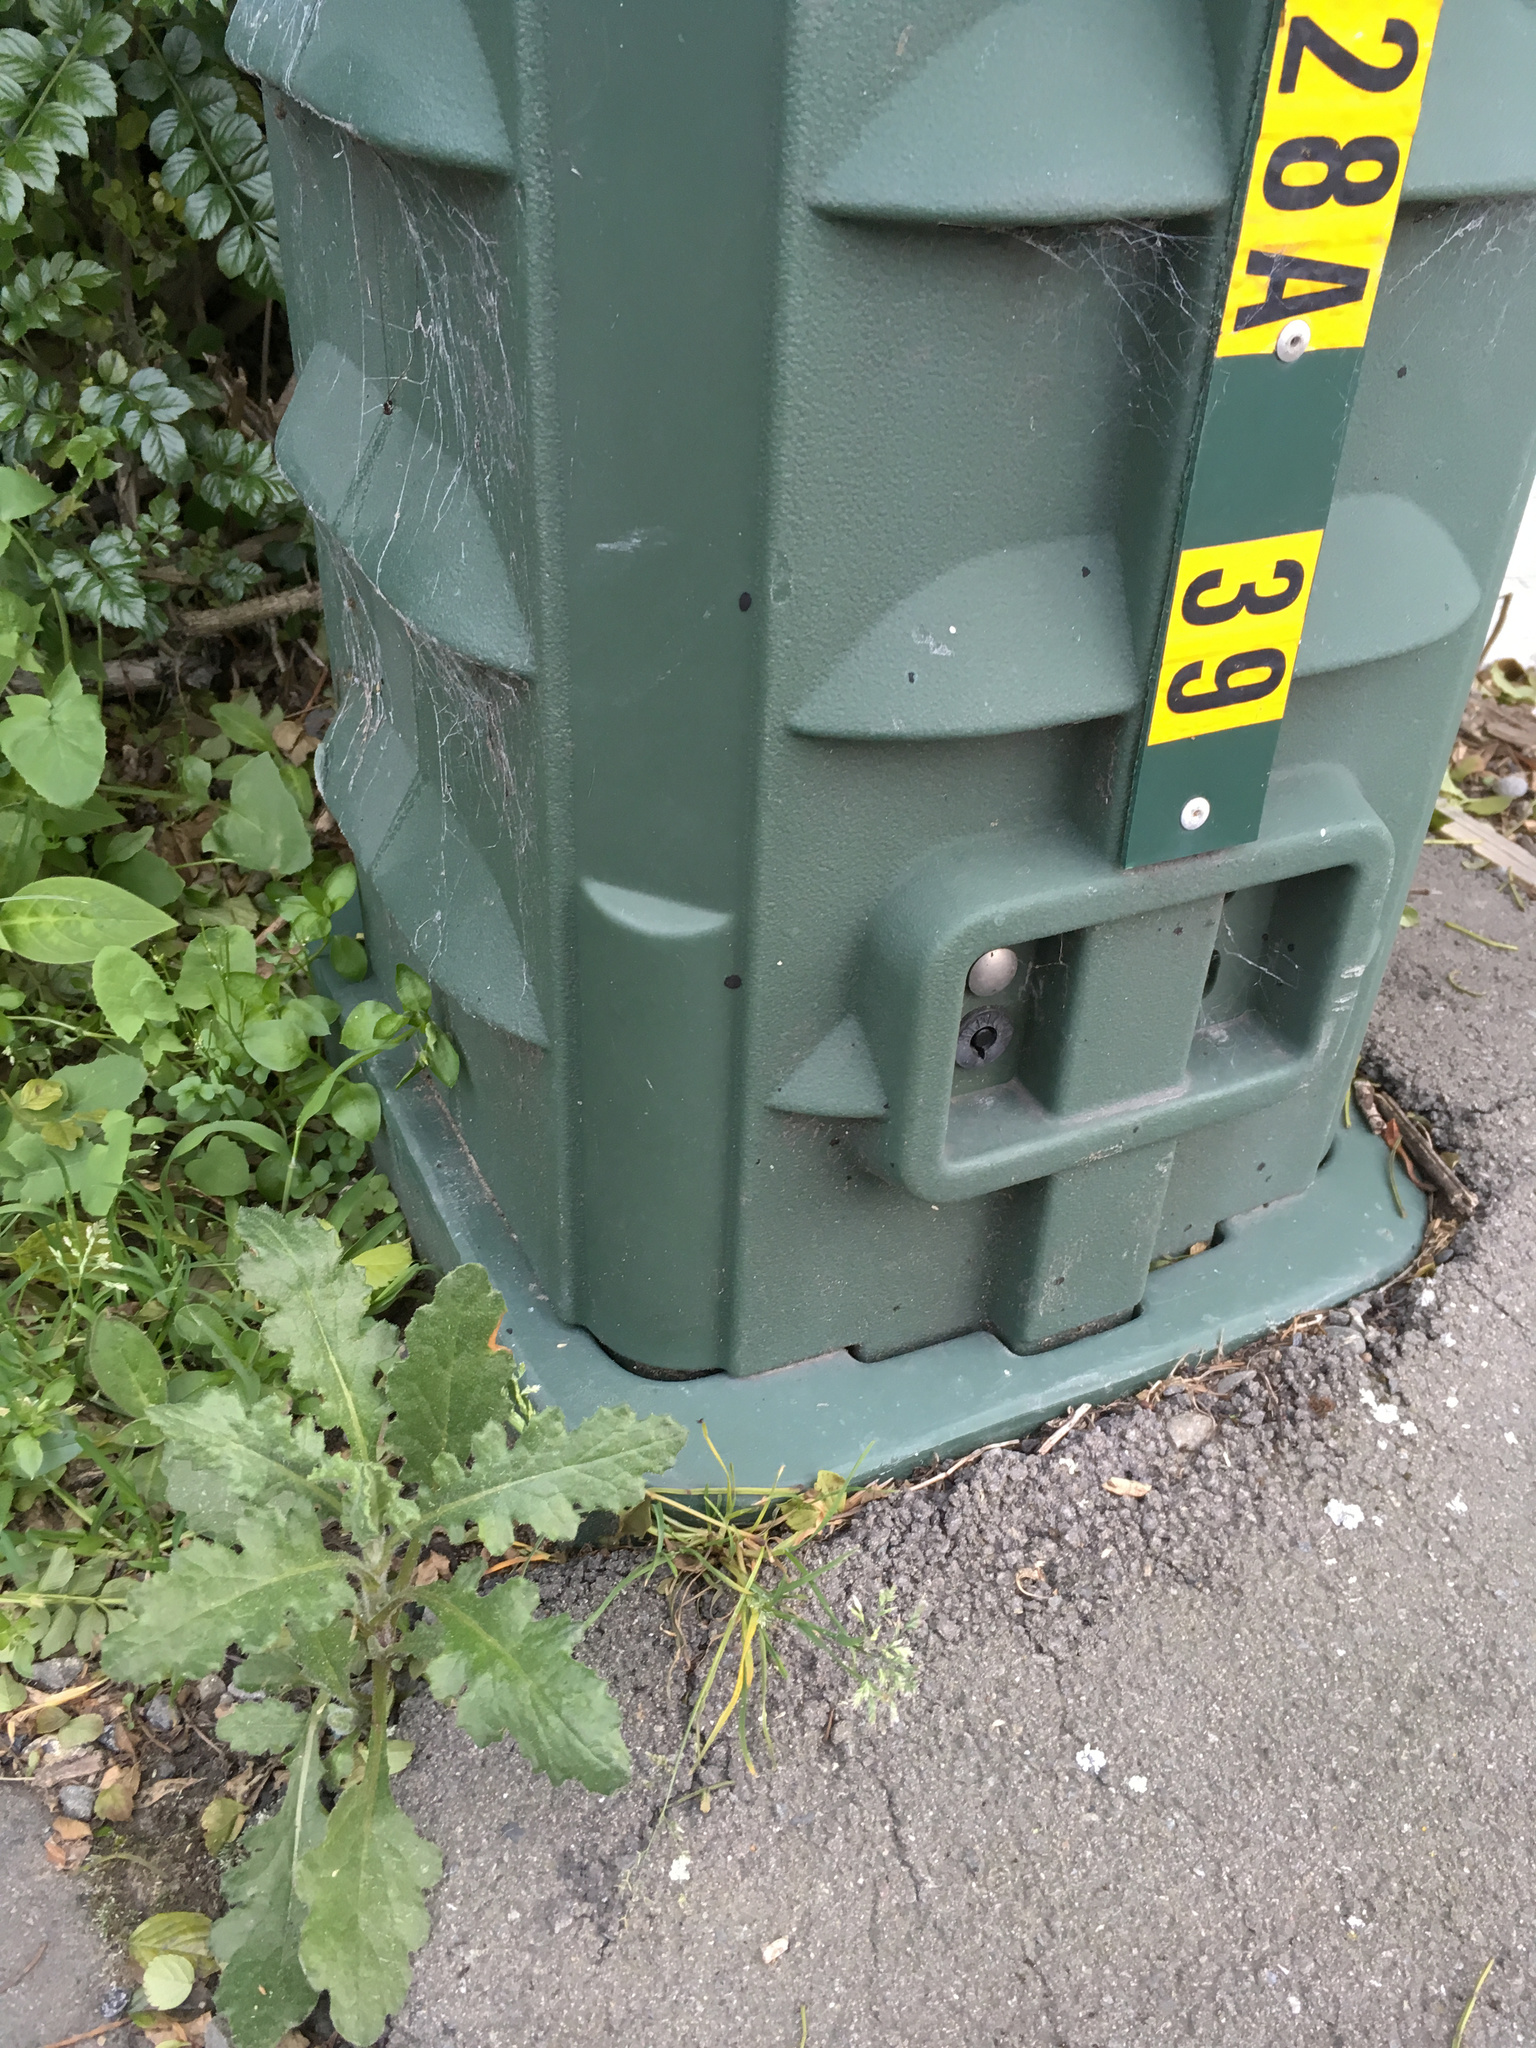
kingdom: Plantae
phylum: Tracheophyta
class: Magnoliopsida
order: Asterales
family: Asteraceae
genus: Senecio
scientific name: Senecio glomeratus
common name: Cutleaf burnweed
